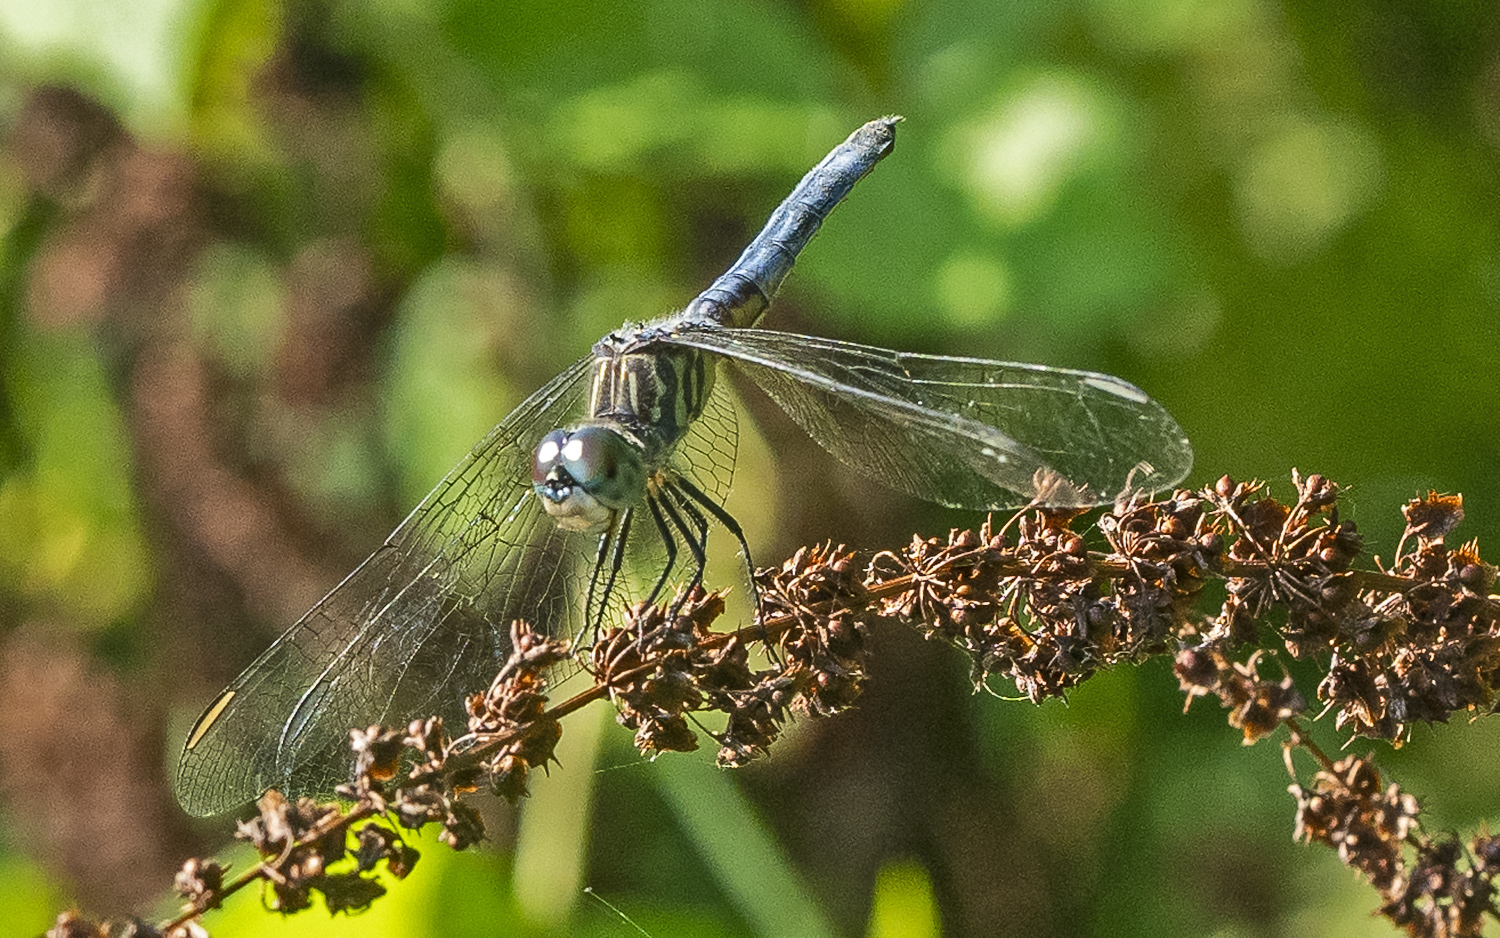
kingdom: Animalia
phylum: Arthropoda
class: Insecta
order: Odonata
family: Libellulidae
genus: Pachydiplax
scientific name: Pachydiplax longipennis
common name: Blue dasher
